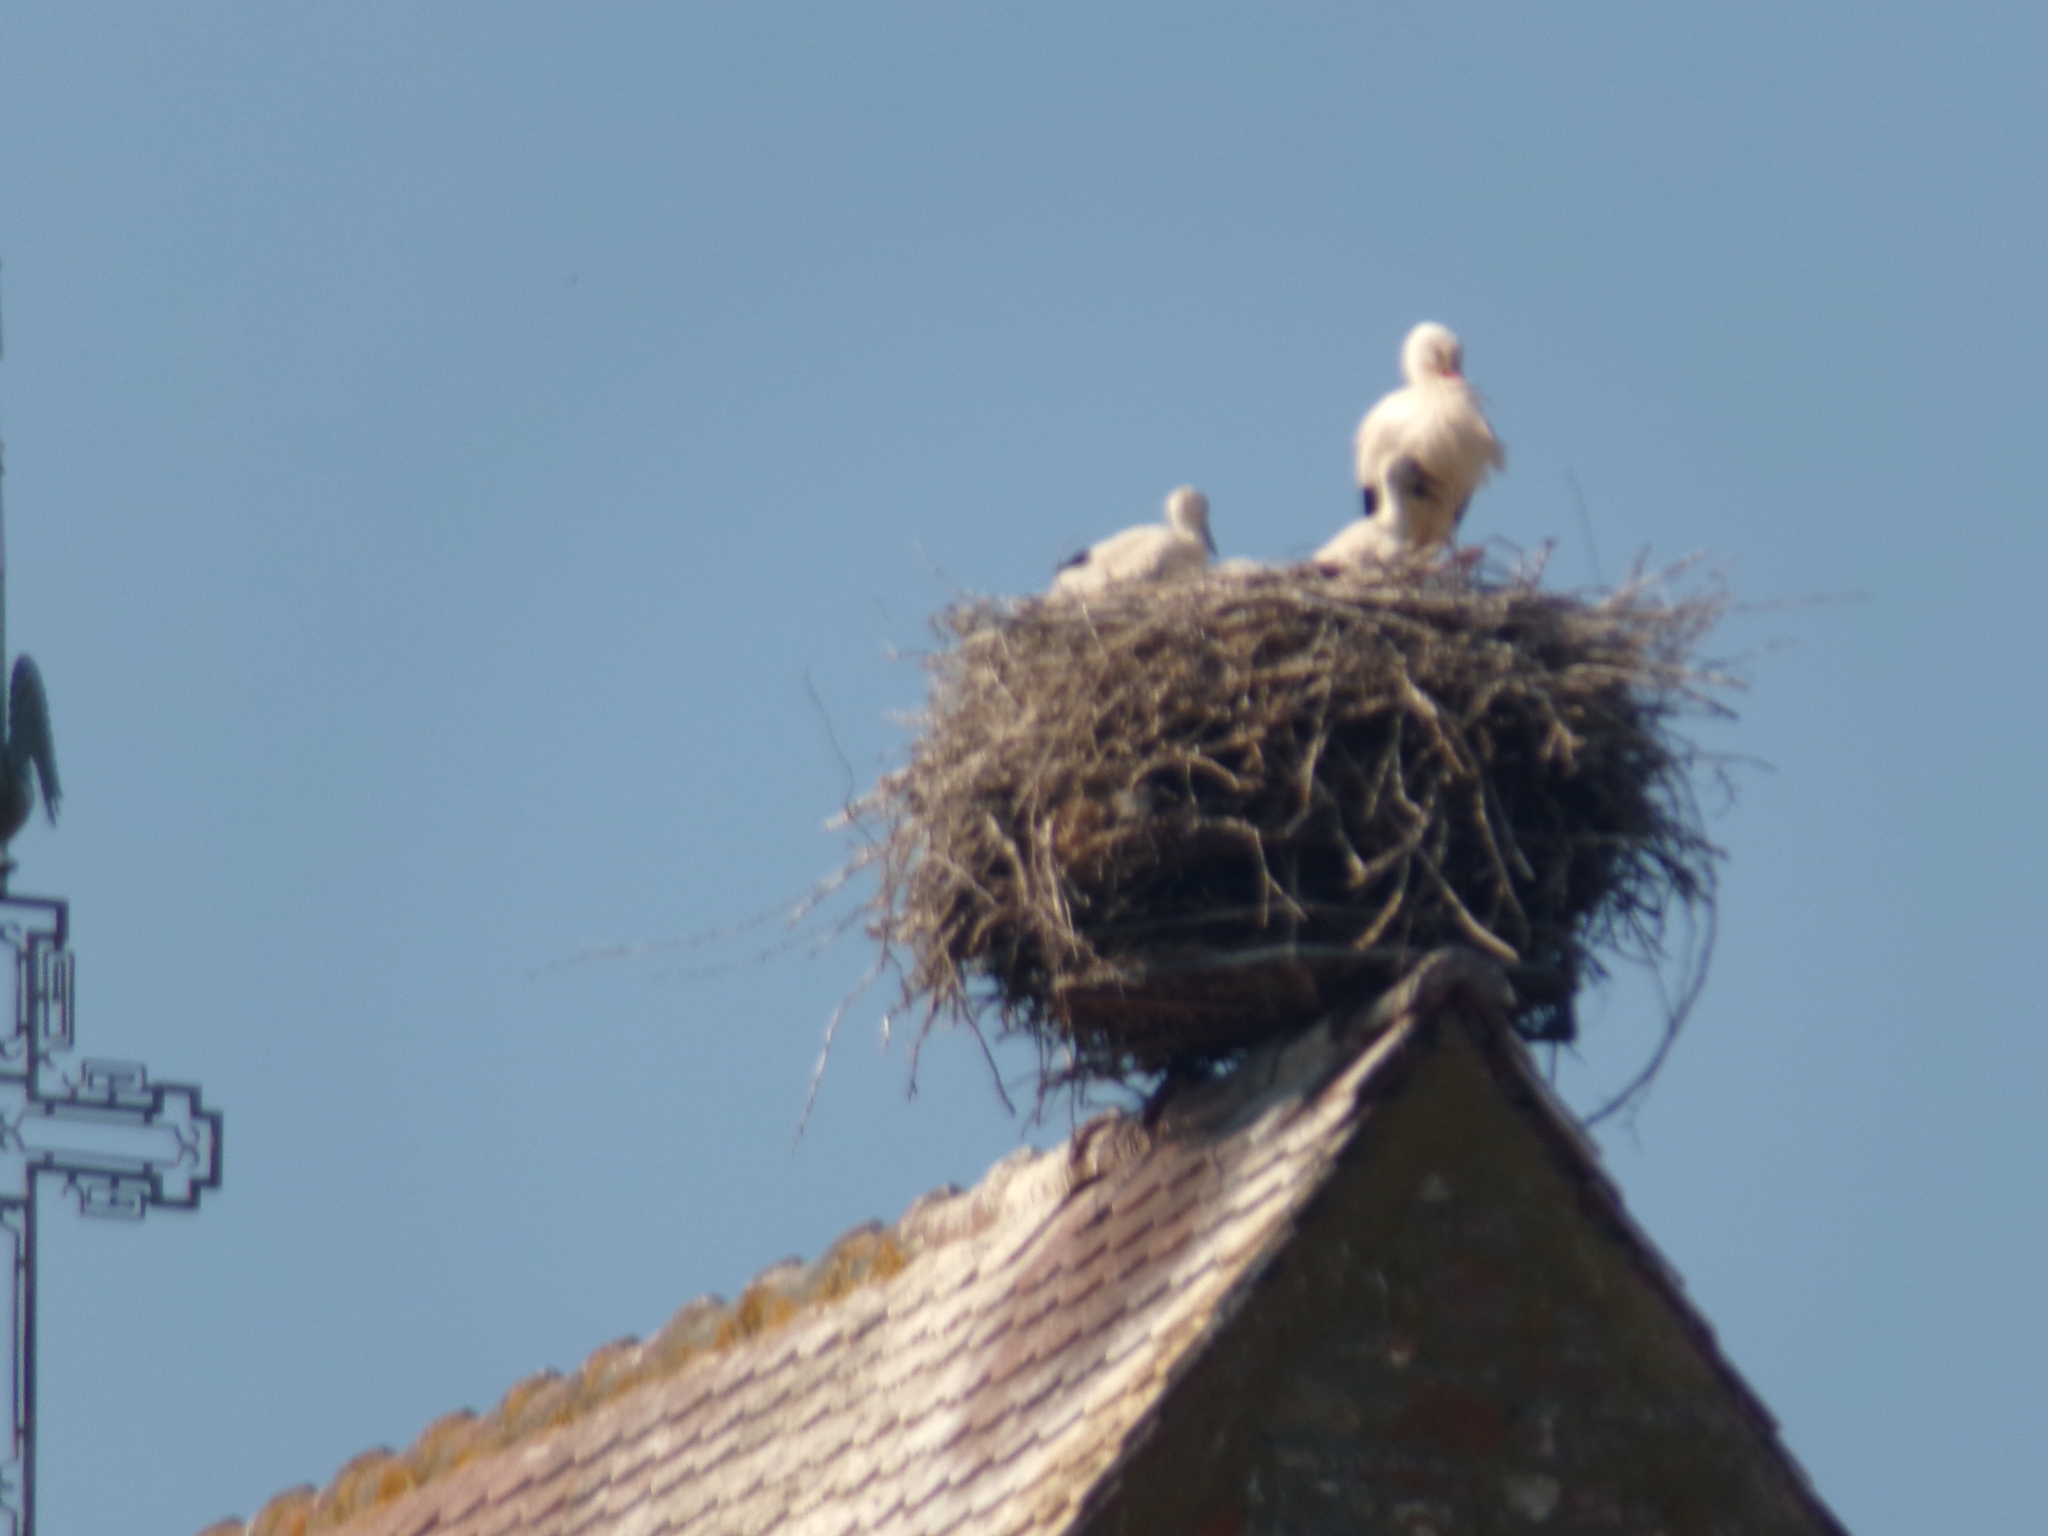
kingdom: Animalia
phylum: Chordata
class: Aves
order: Ciconiiformes
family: Ciconiidae
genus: Ciconia
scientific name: Ciconia ciconia
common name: White stork
